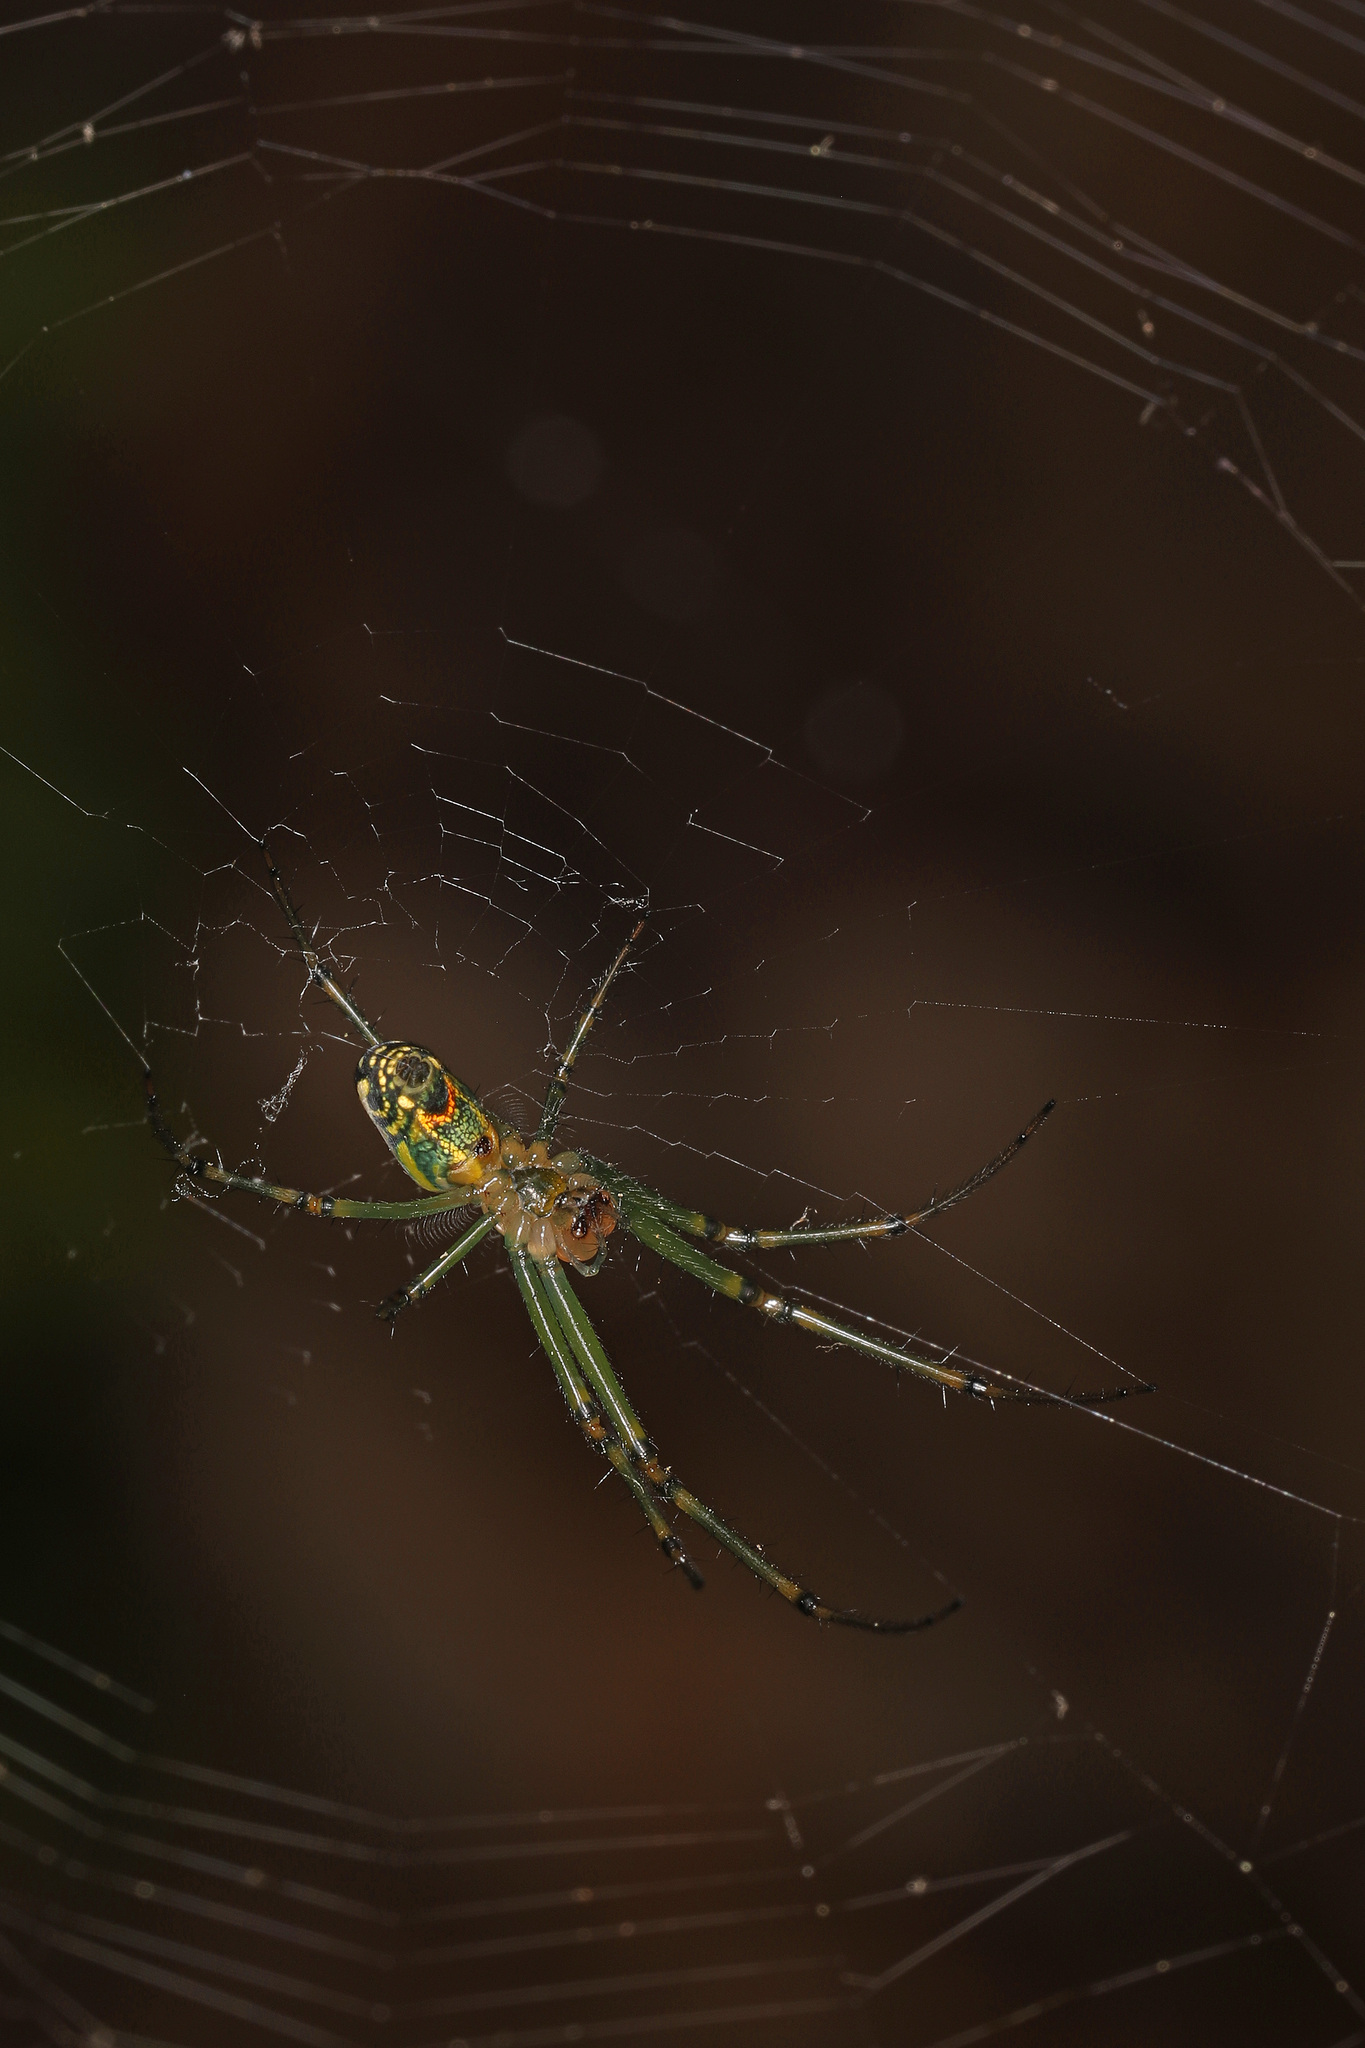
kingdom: Animalia
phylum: Arthropoda
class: Arachnida
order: Araneae
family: Tetragnathidae
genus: Leucauge
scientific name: Leucauge venusta
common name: Longjawed orb weavers
